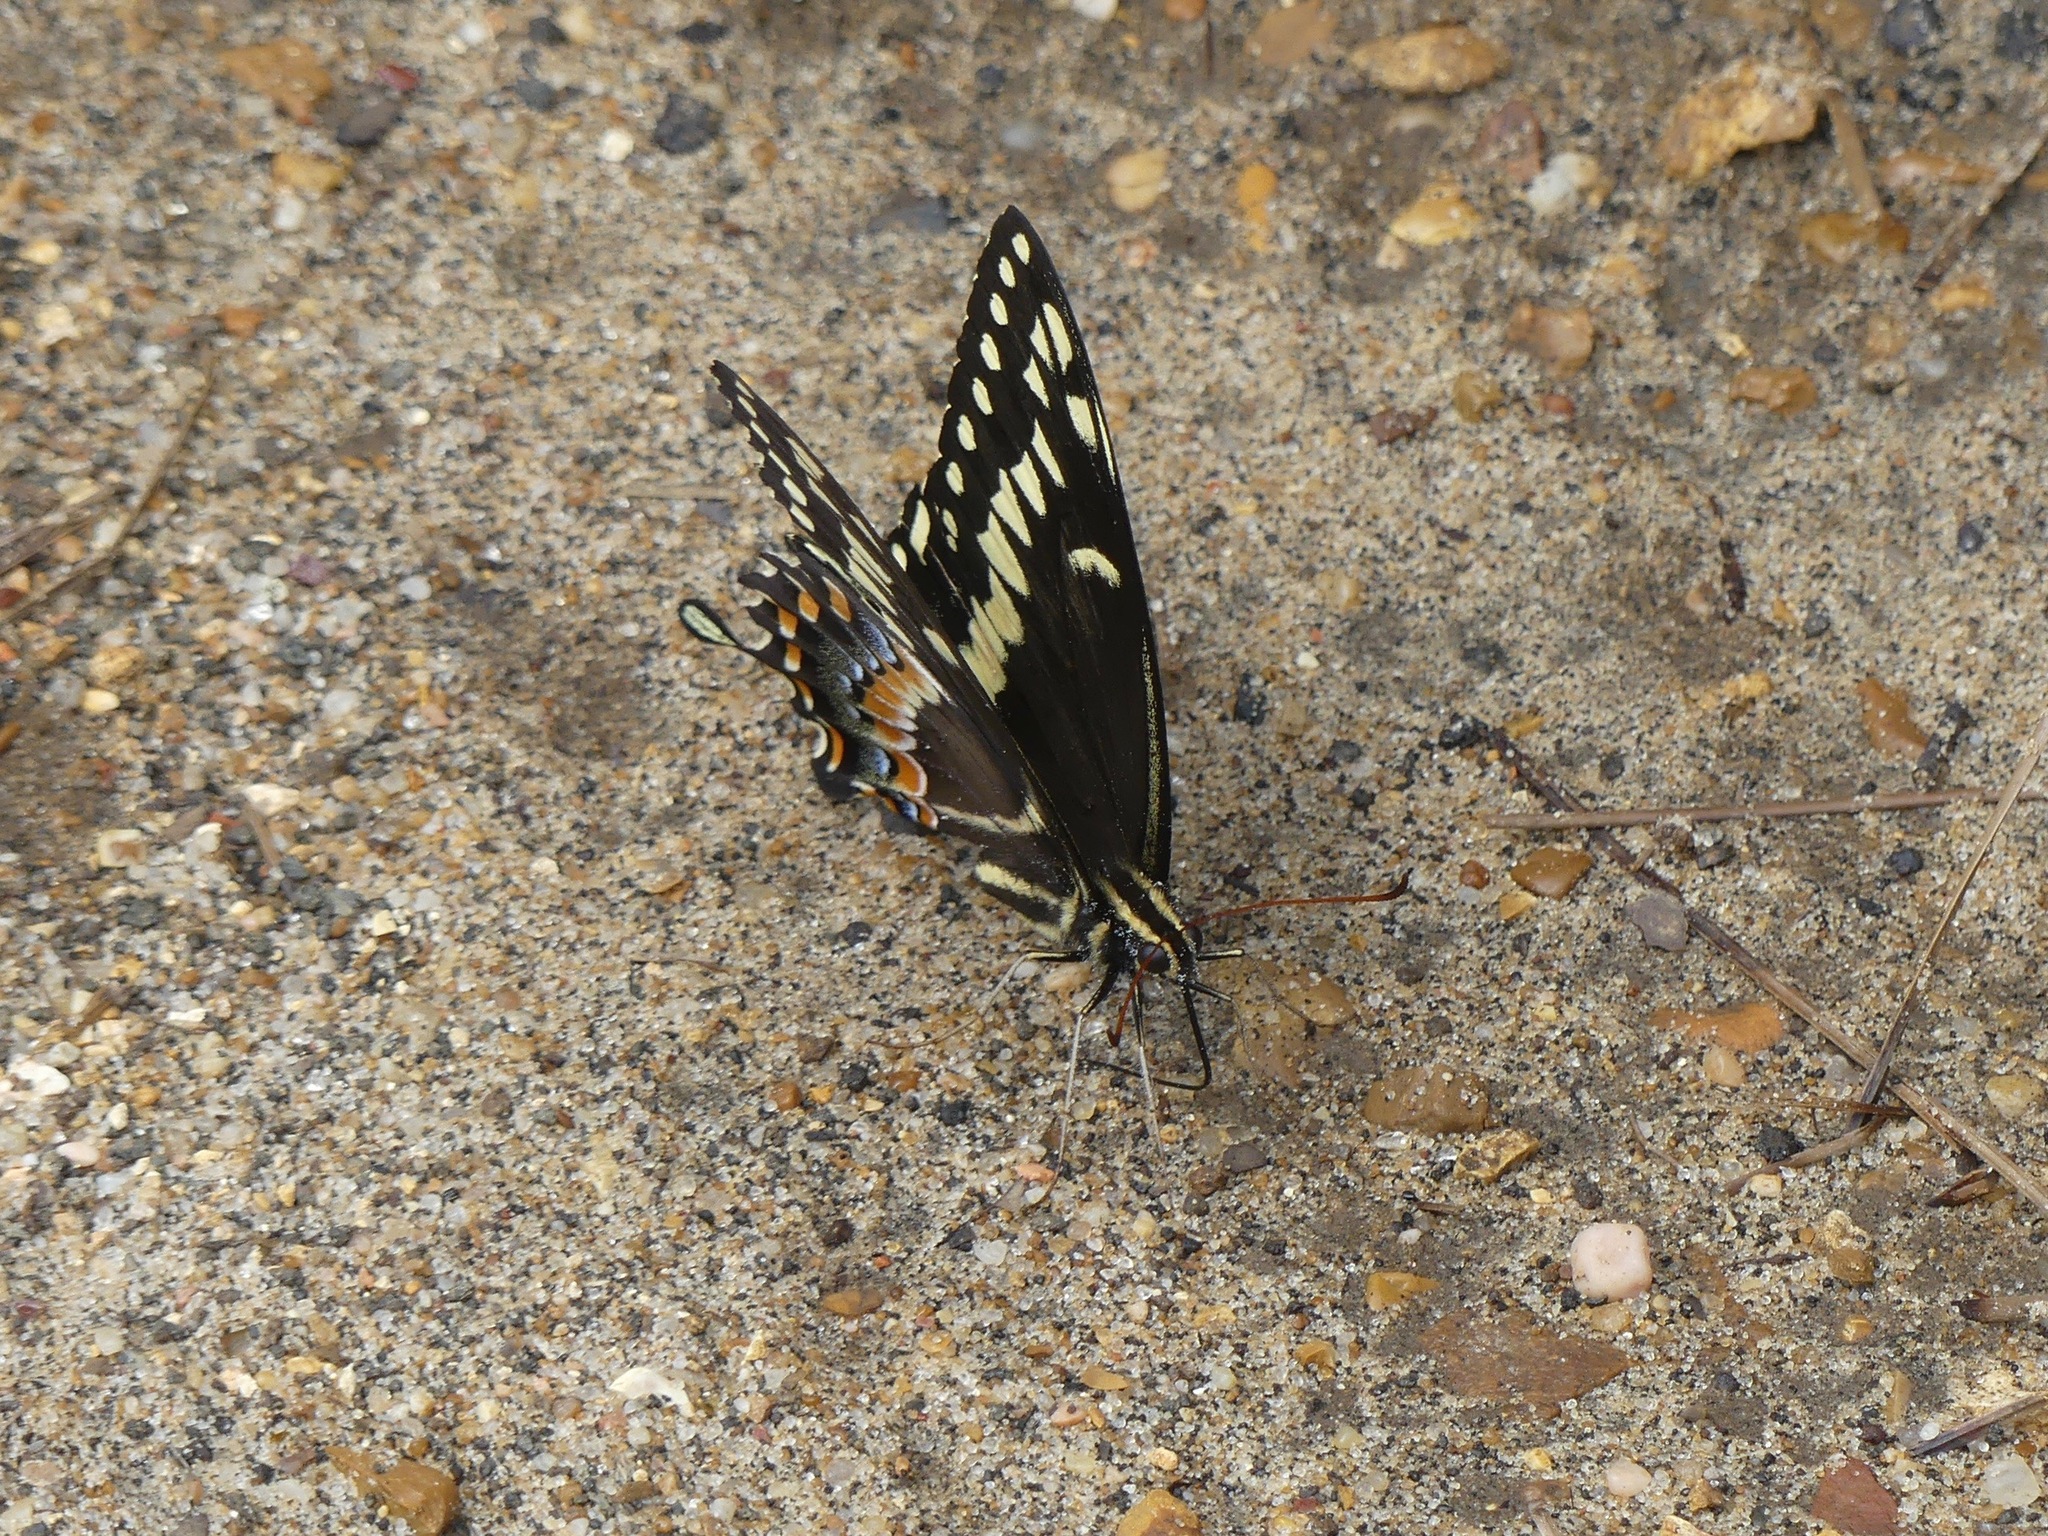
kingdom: Animalia
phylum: Arthropoda
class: Insecta
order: Lepidoptera
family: Papilionidae
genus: Papilio
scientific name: Papilio palamedes
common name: Palamedes swallowtail
